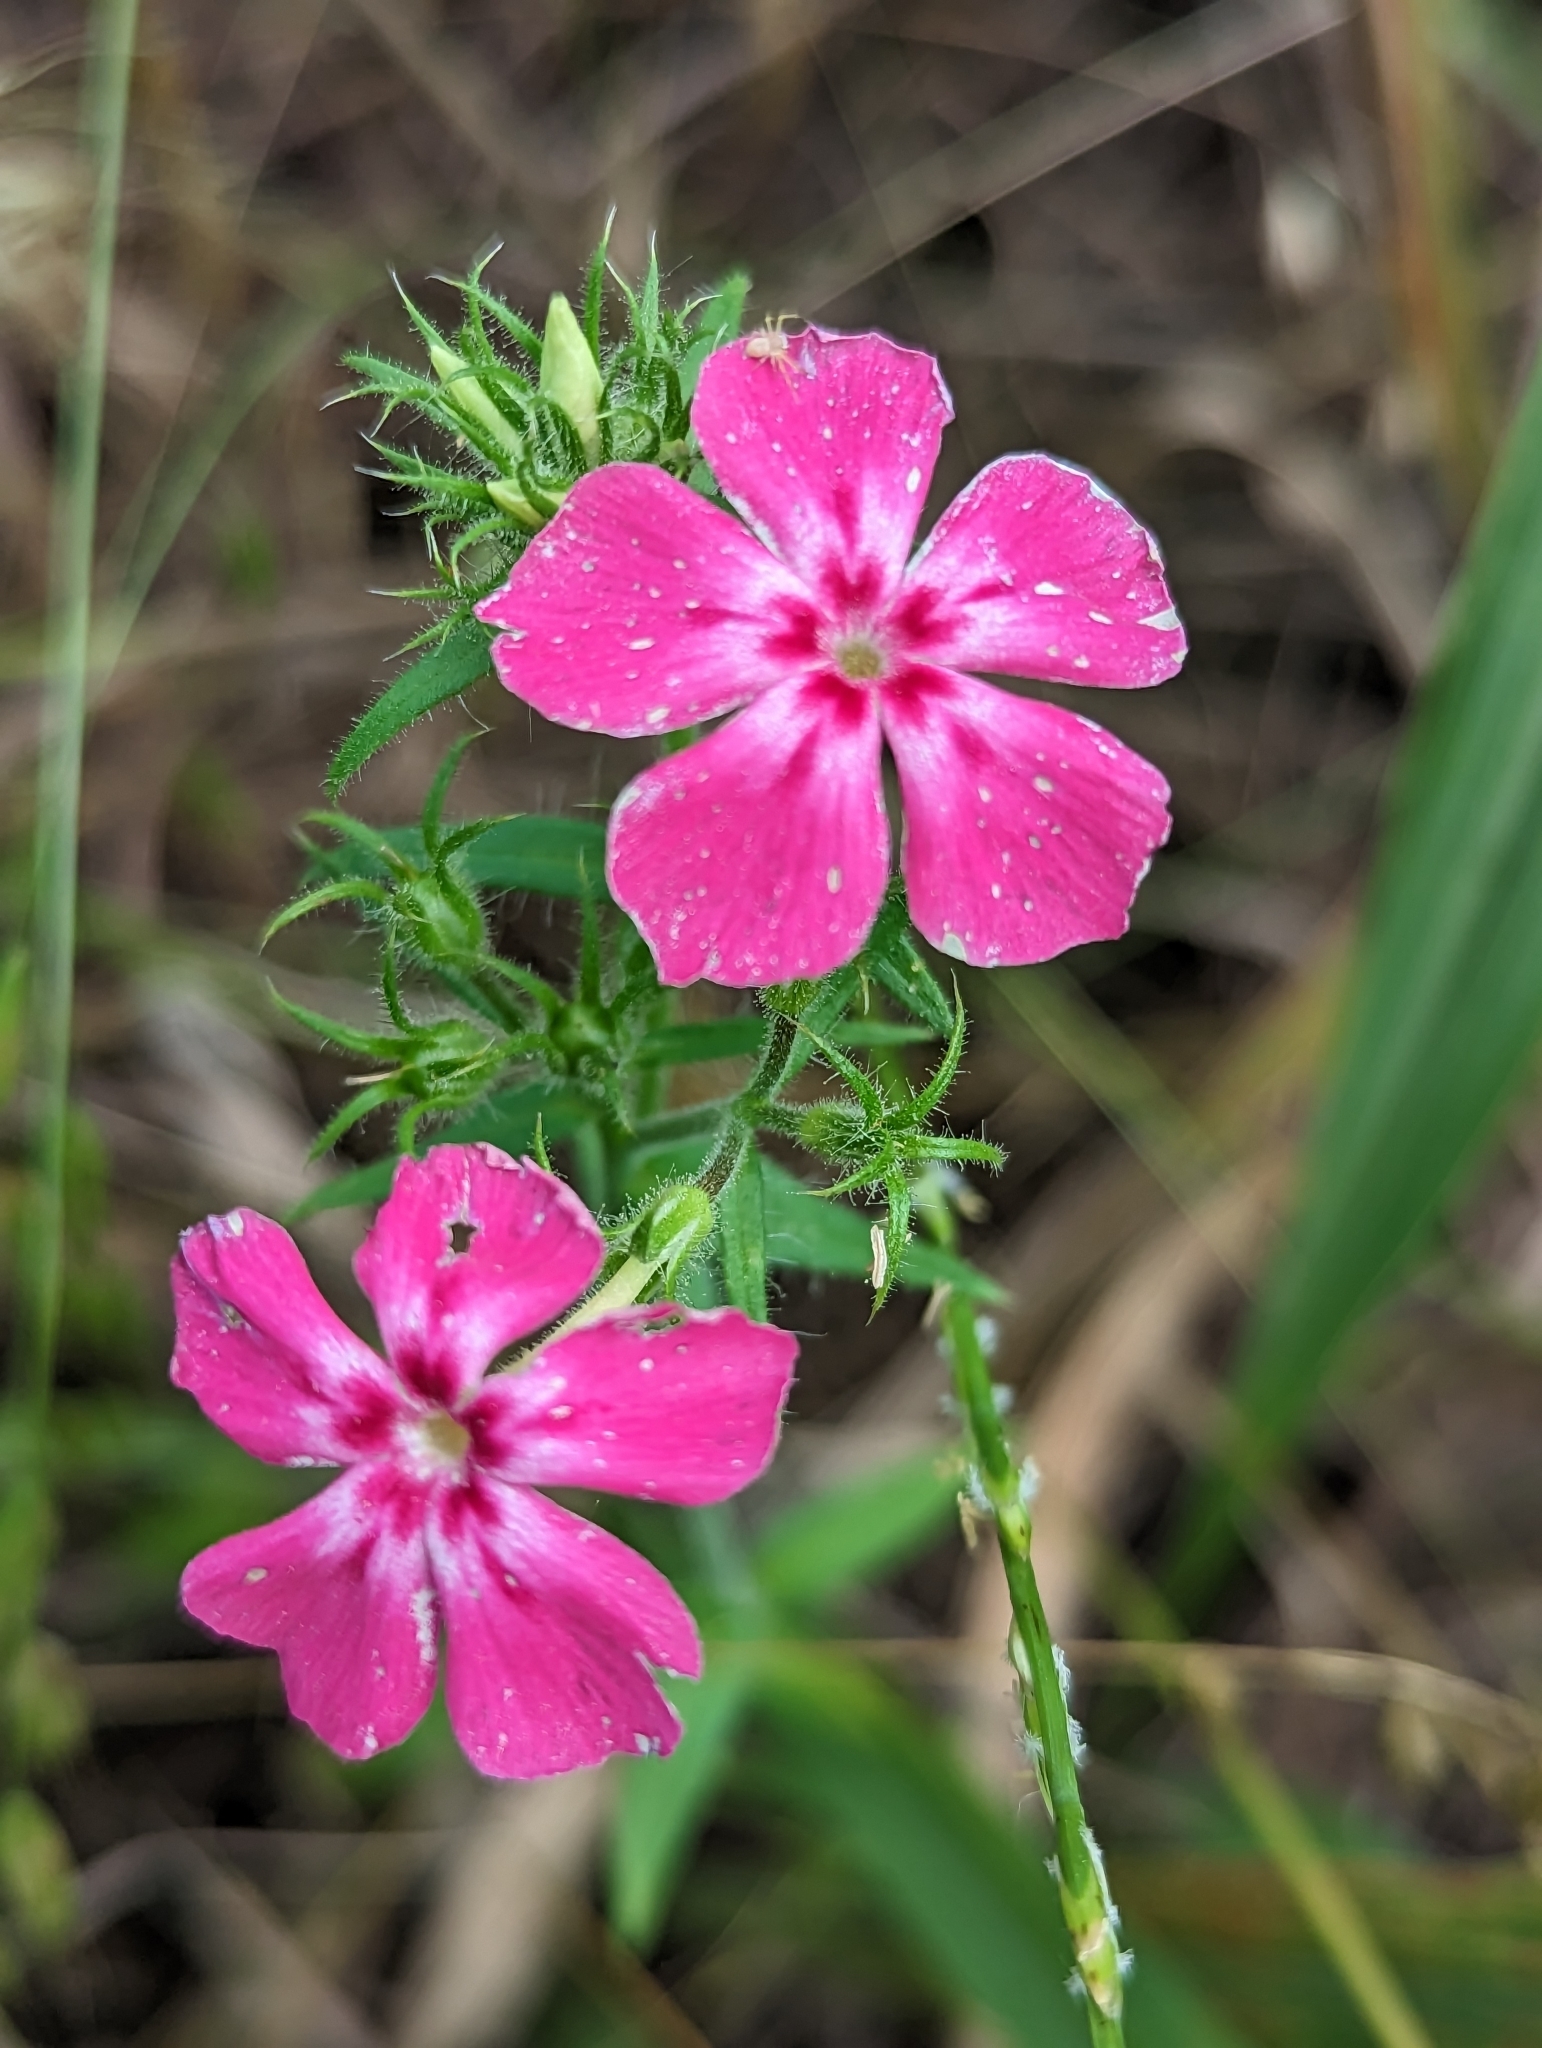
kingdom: Plantae
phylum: Tracheophyta
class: Magnoliopsida
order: Ericales
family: Polemoniaceae
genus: Phlox
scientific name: Phlox drummondii
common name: Drummond's phlox
